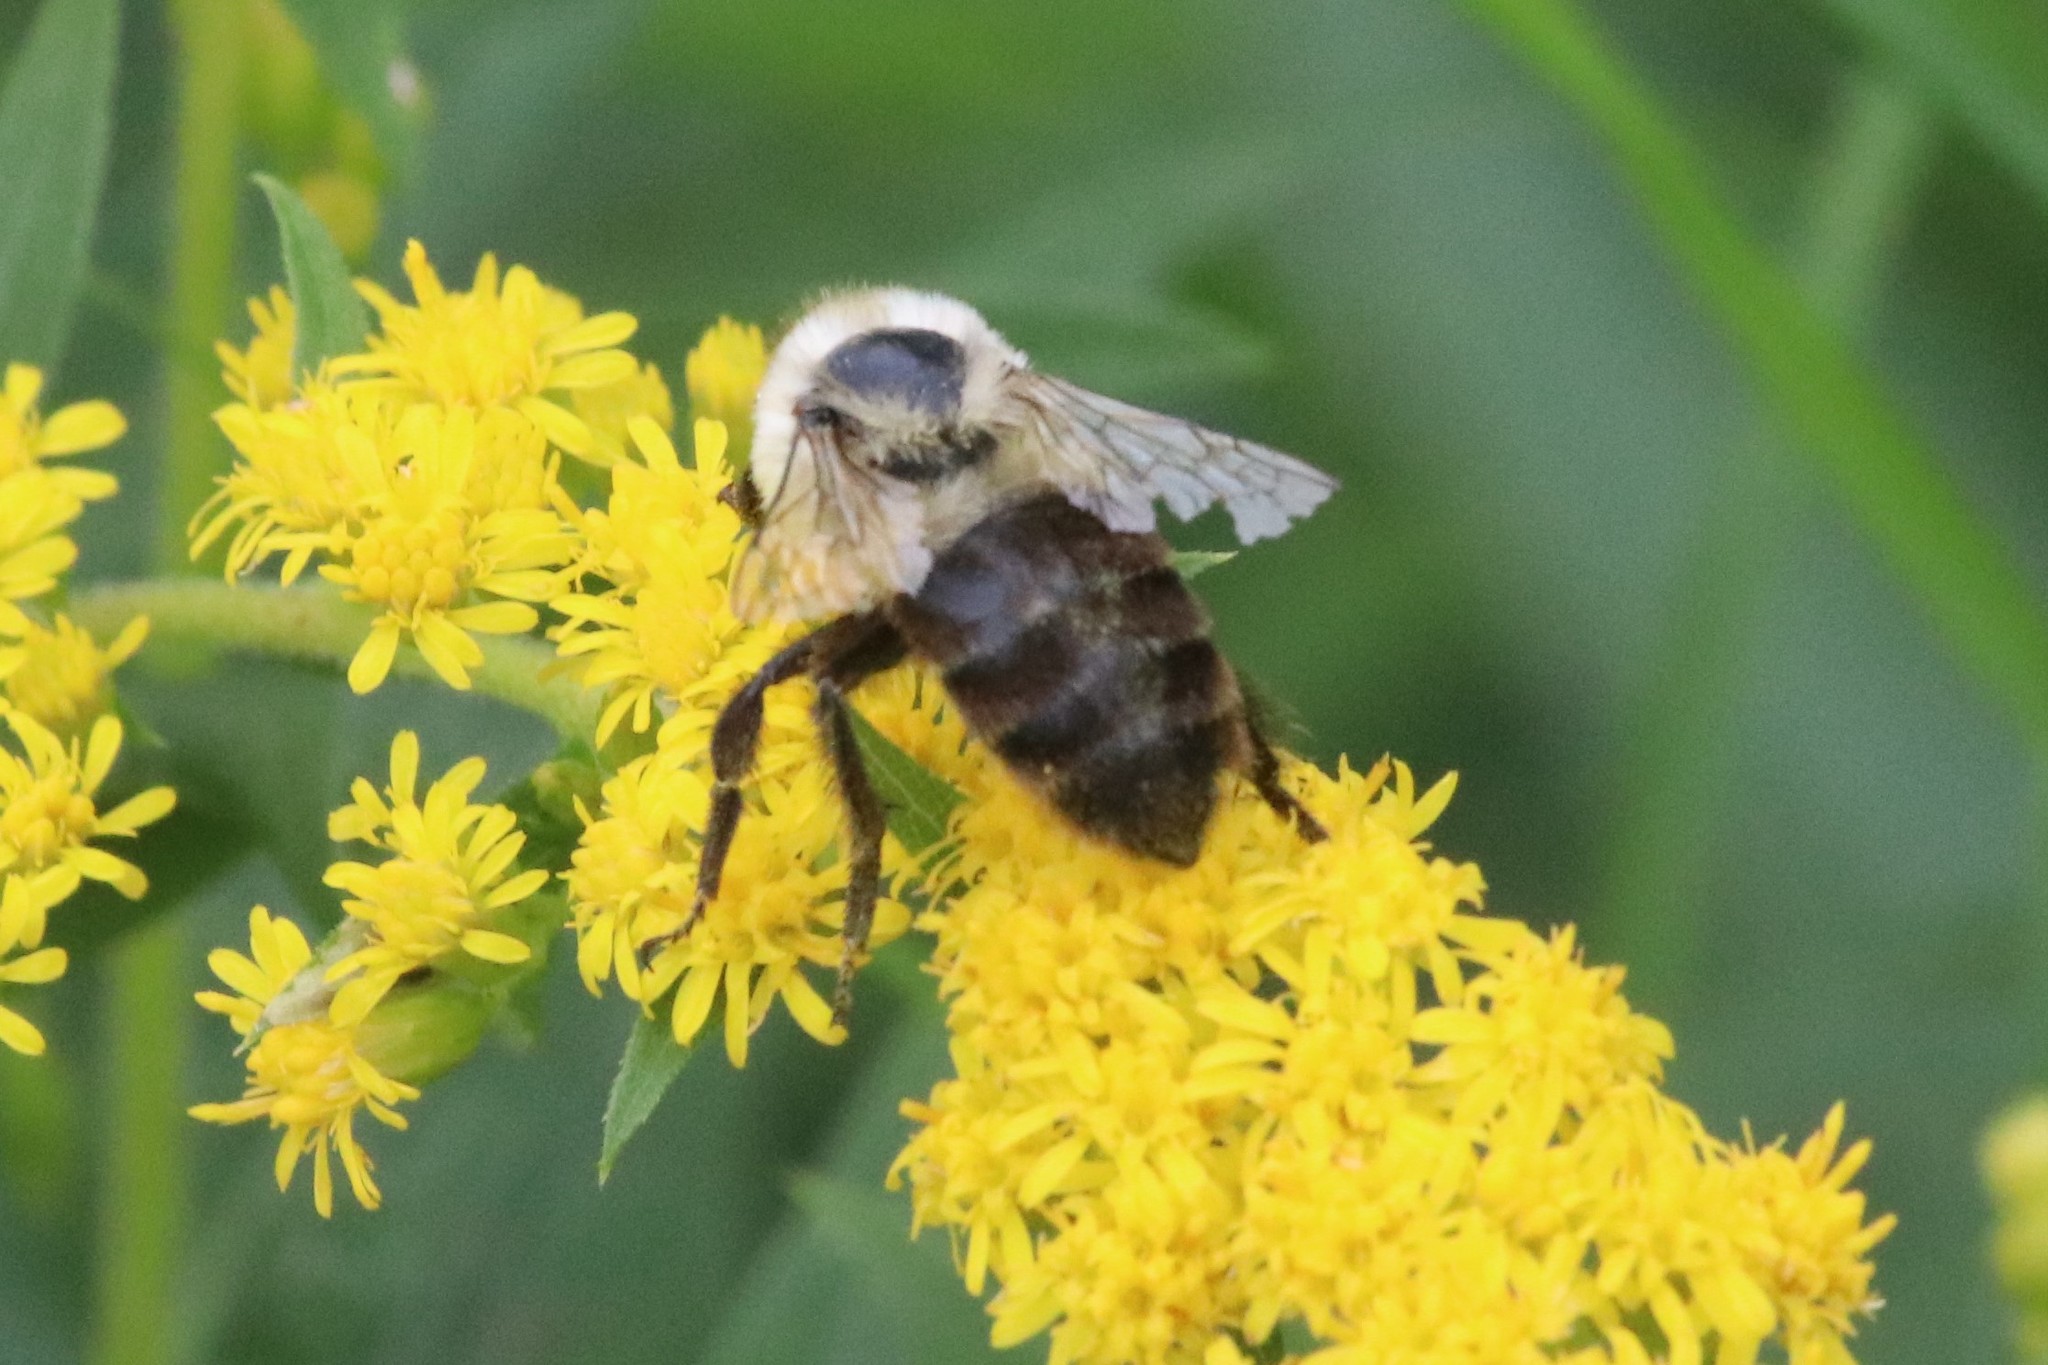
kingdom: Animalia
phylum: Arthropoda
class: Insecta
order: Hymenoptera
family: Apidae
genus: Bombus
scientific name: Bombus impatiens
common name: Common eastern bumble bee
